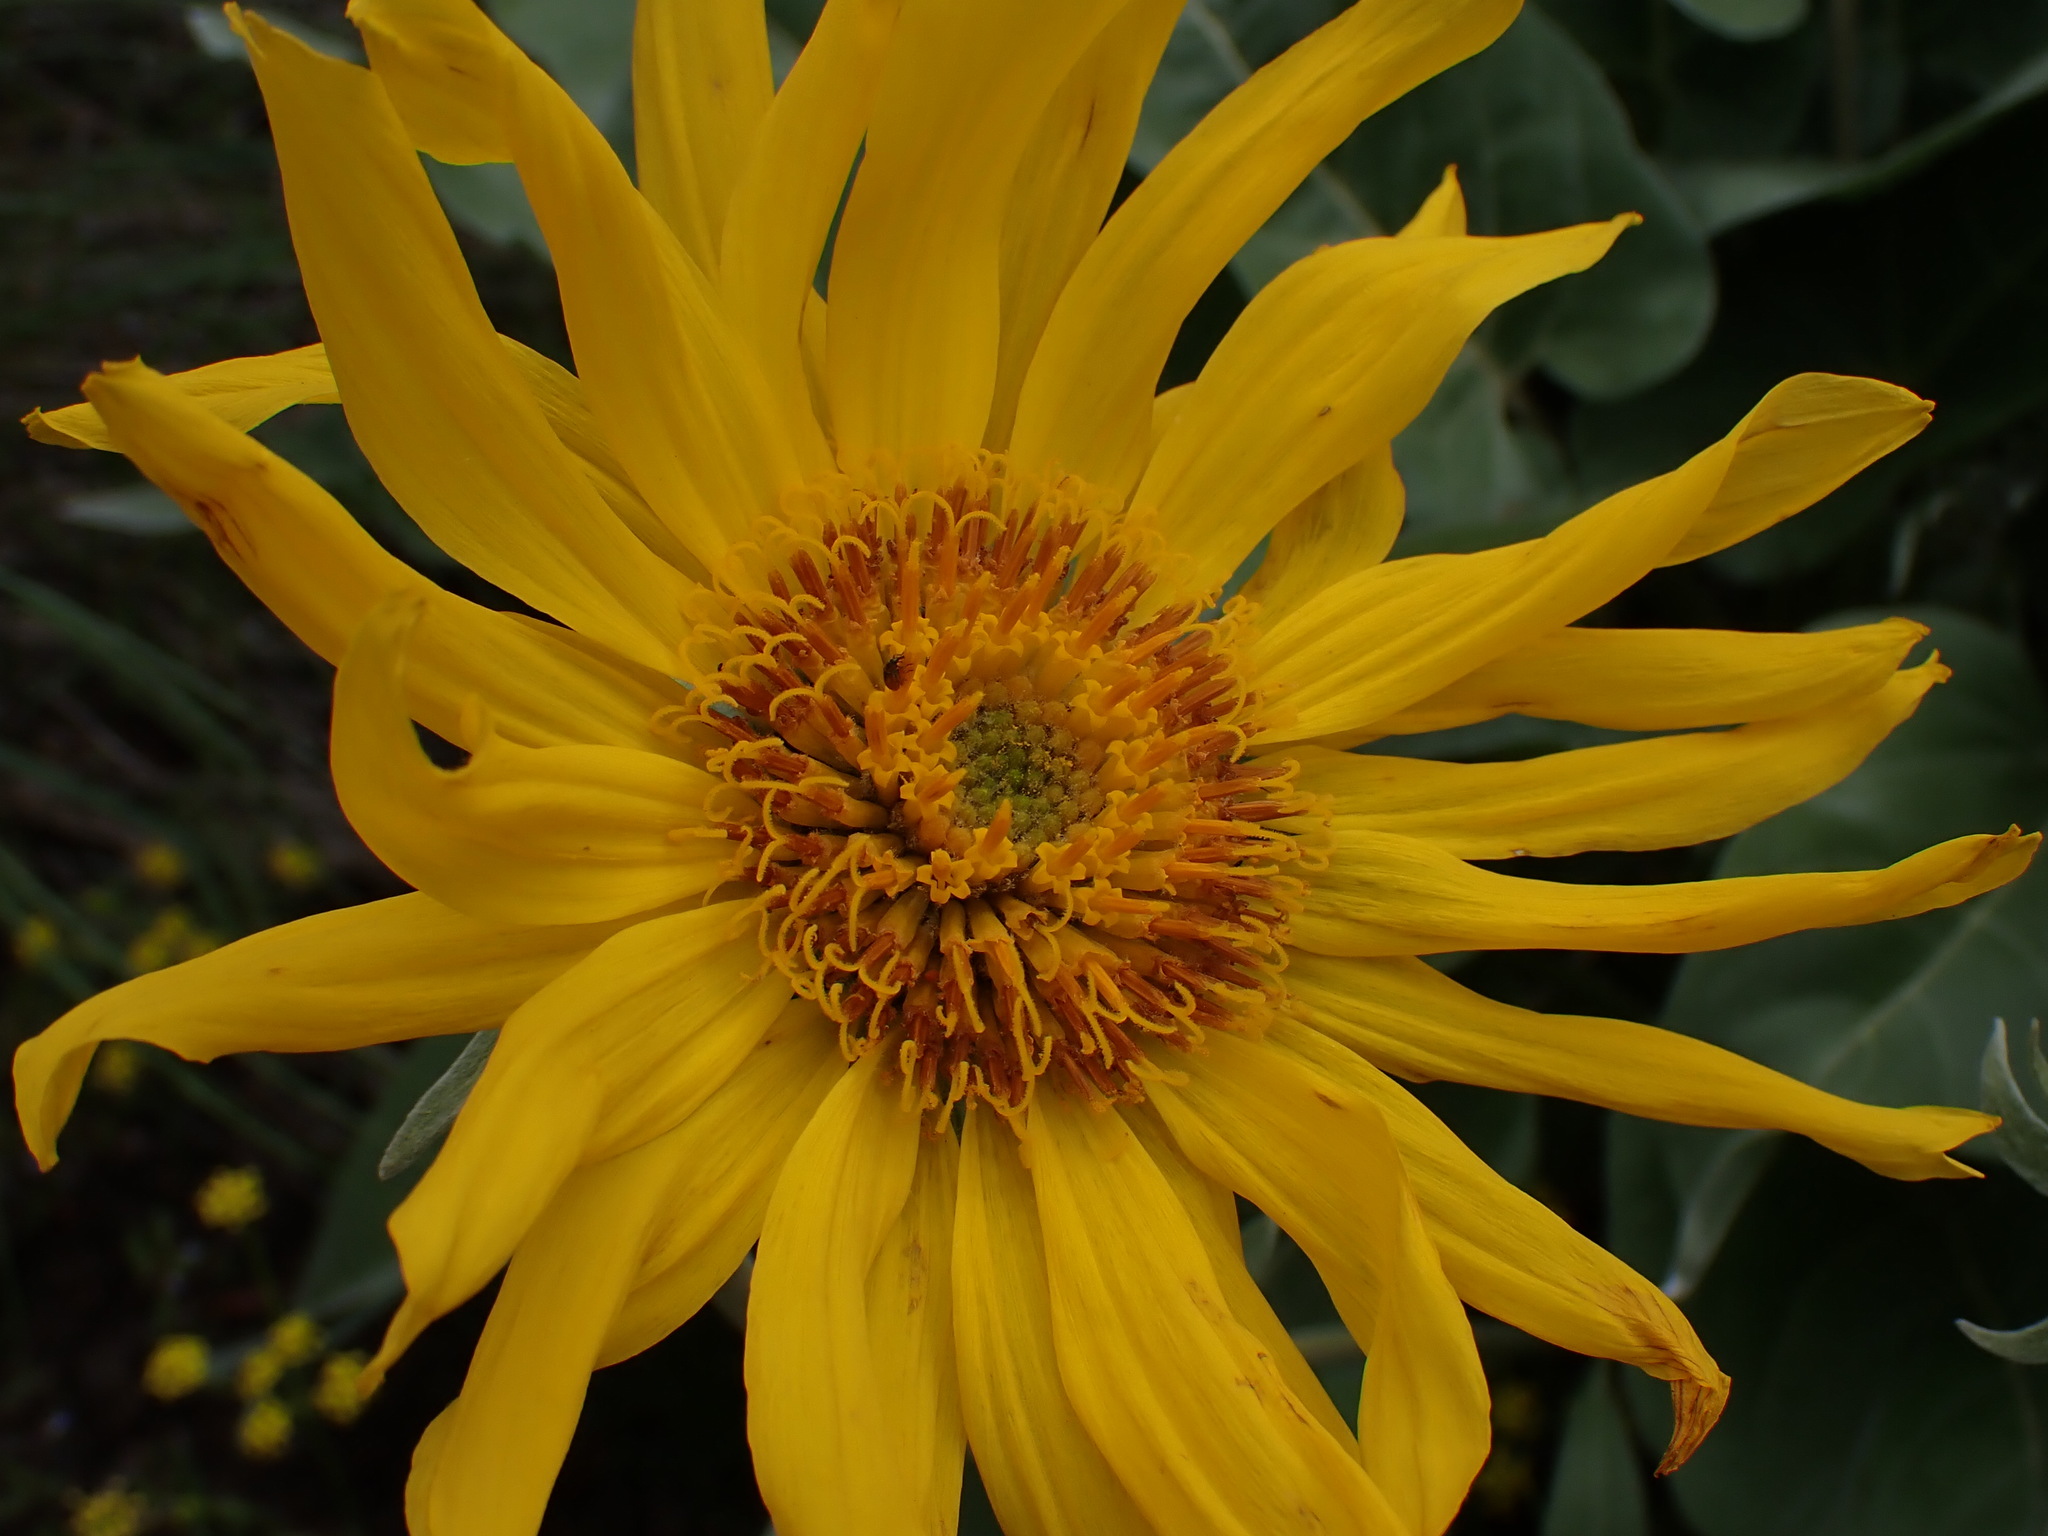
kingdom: Plantae
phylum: Tracheophyta
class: Magnoliopsida
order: Asterales
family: Asteraceae
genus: Wyethia
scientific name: Wyethia sagittata
